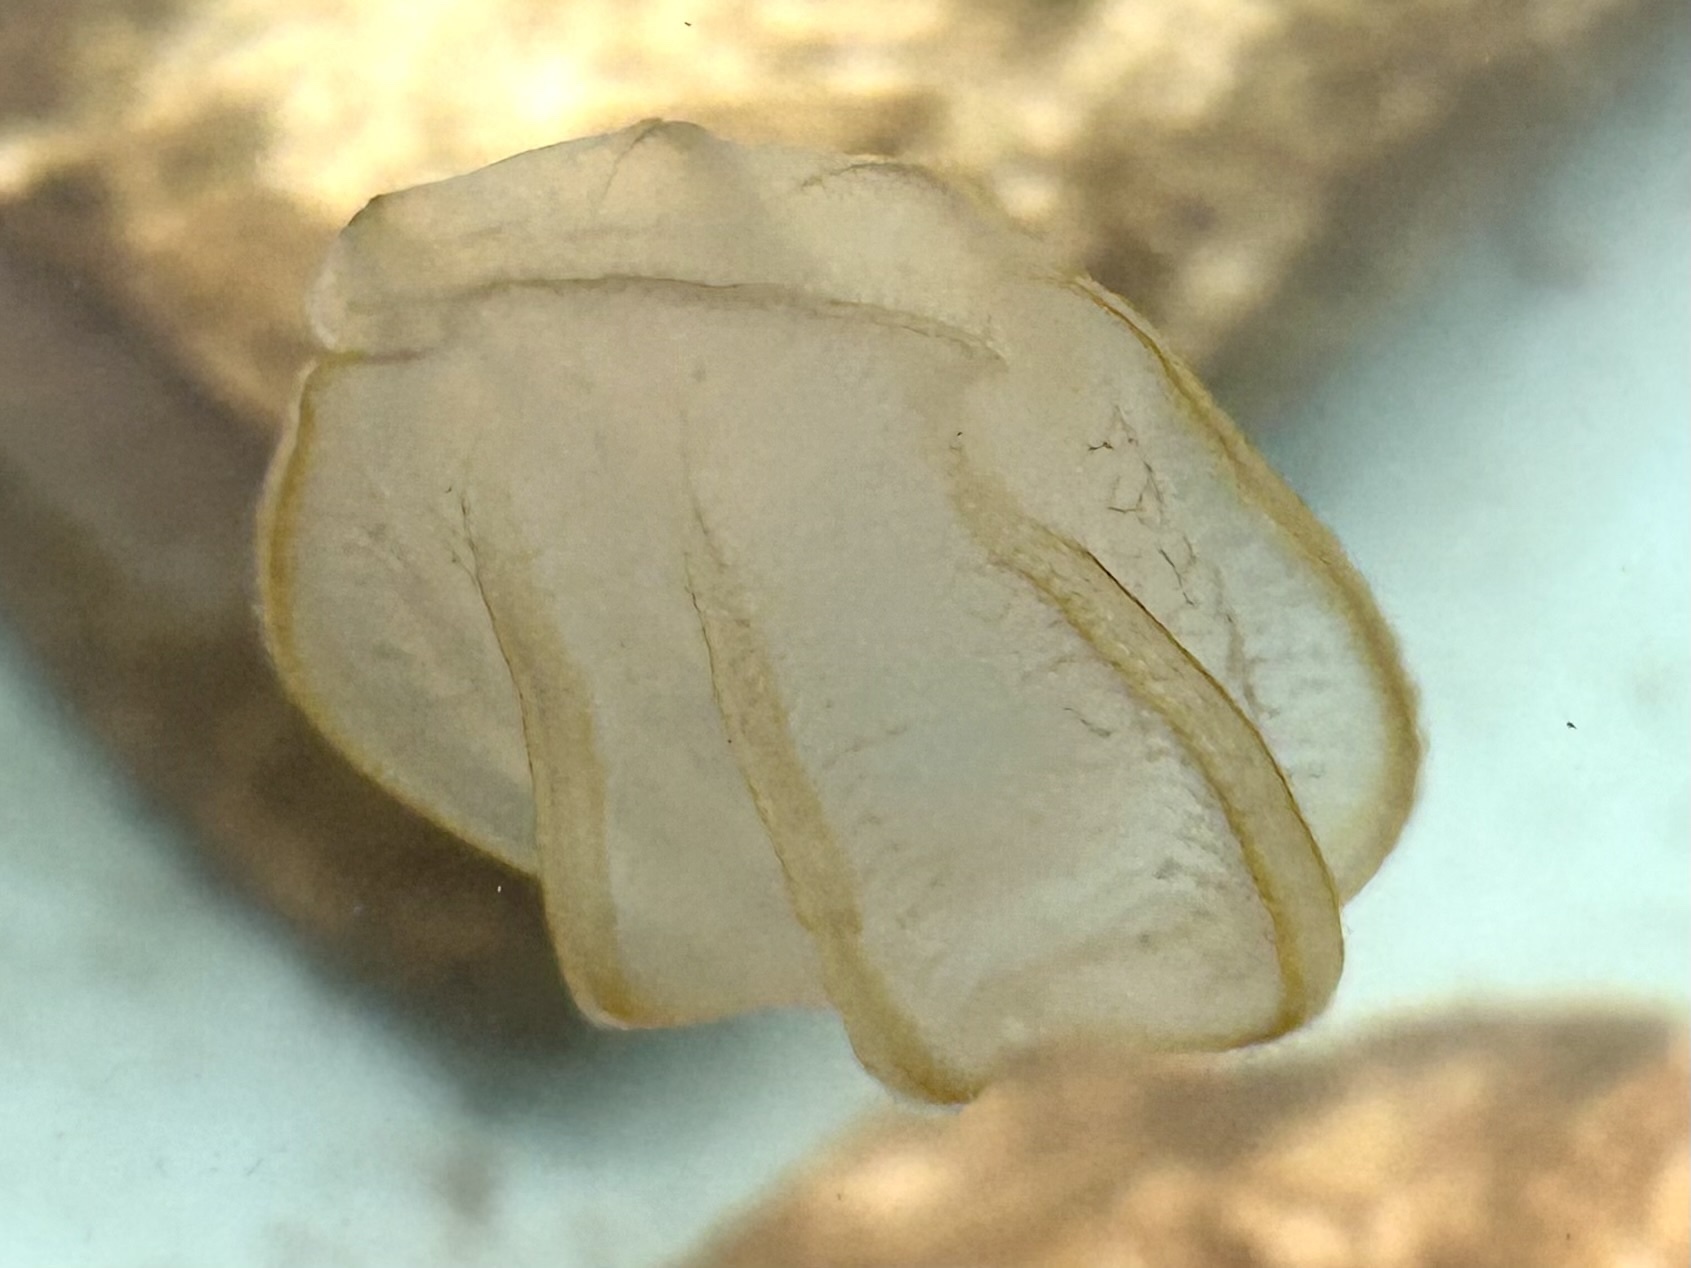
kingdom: Animalia
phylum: Ctenophora
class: Nuda
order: Beroida
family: Beroidae
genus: Beroe
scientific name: Beroe ovata
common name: Flattened helmet comb jelly
